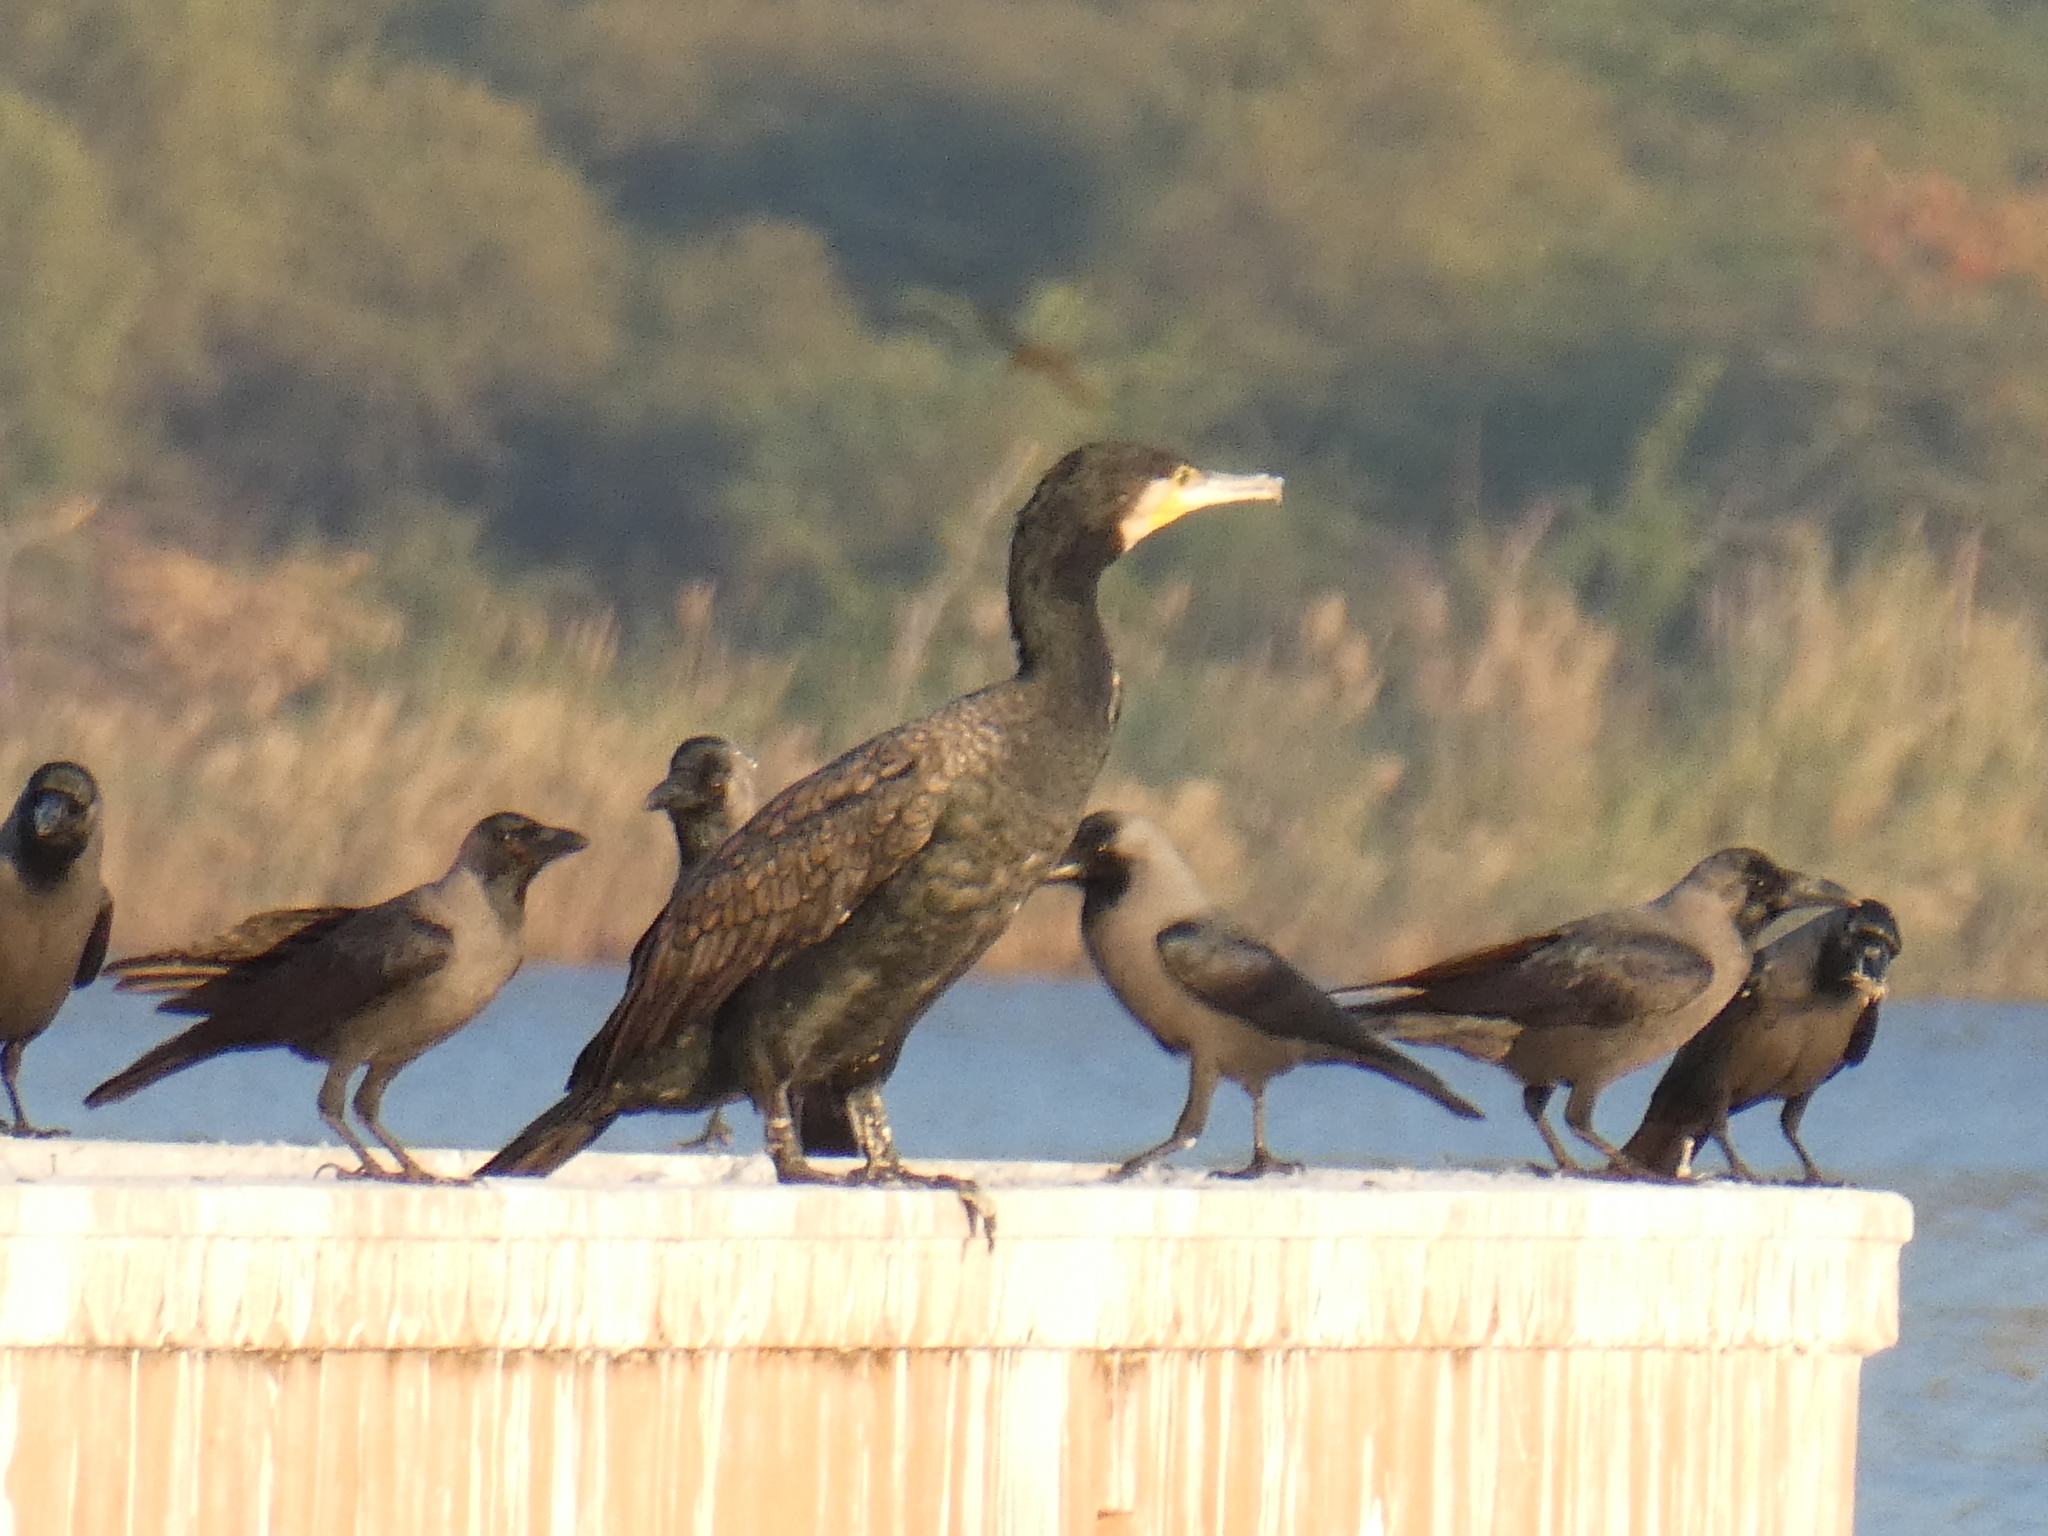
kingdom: Animalia
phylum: Chordata
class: Aves
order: Suliformes
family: Phalacrocoracidae
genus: Phalacrocorax
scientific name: Phalacrocorax carbo
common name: Great cormorant
